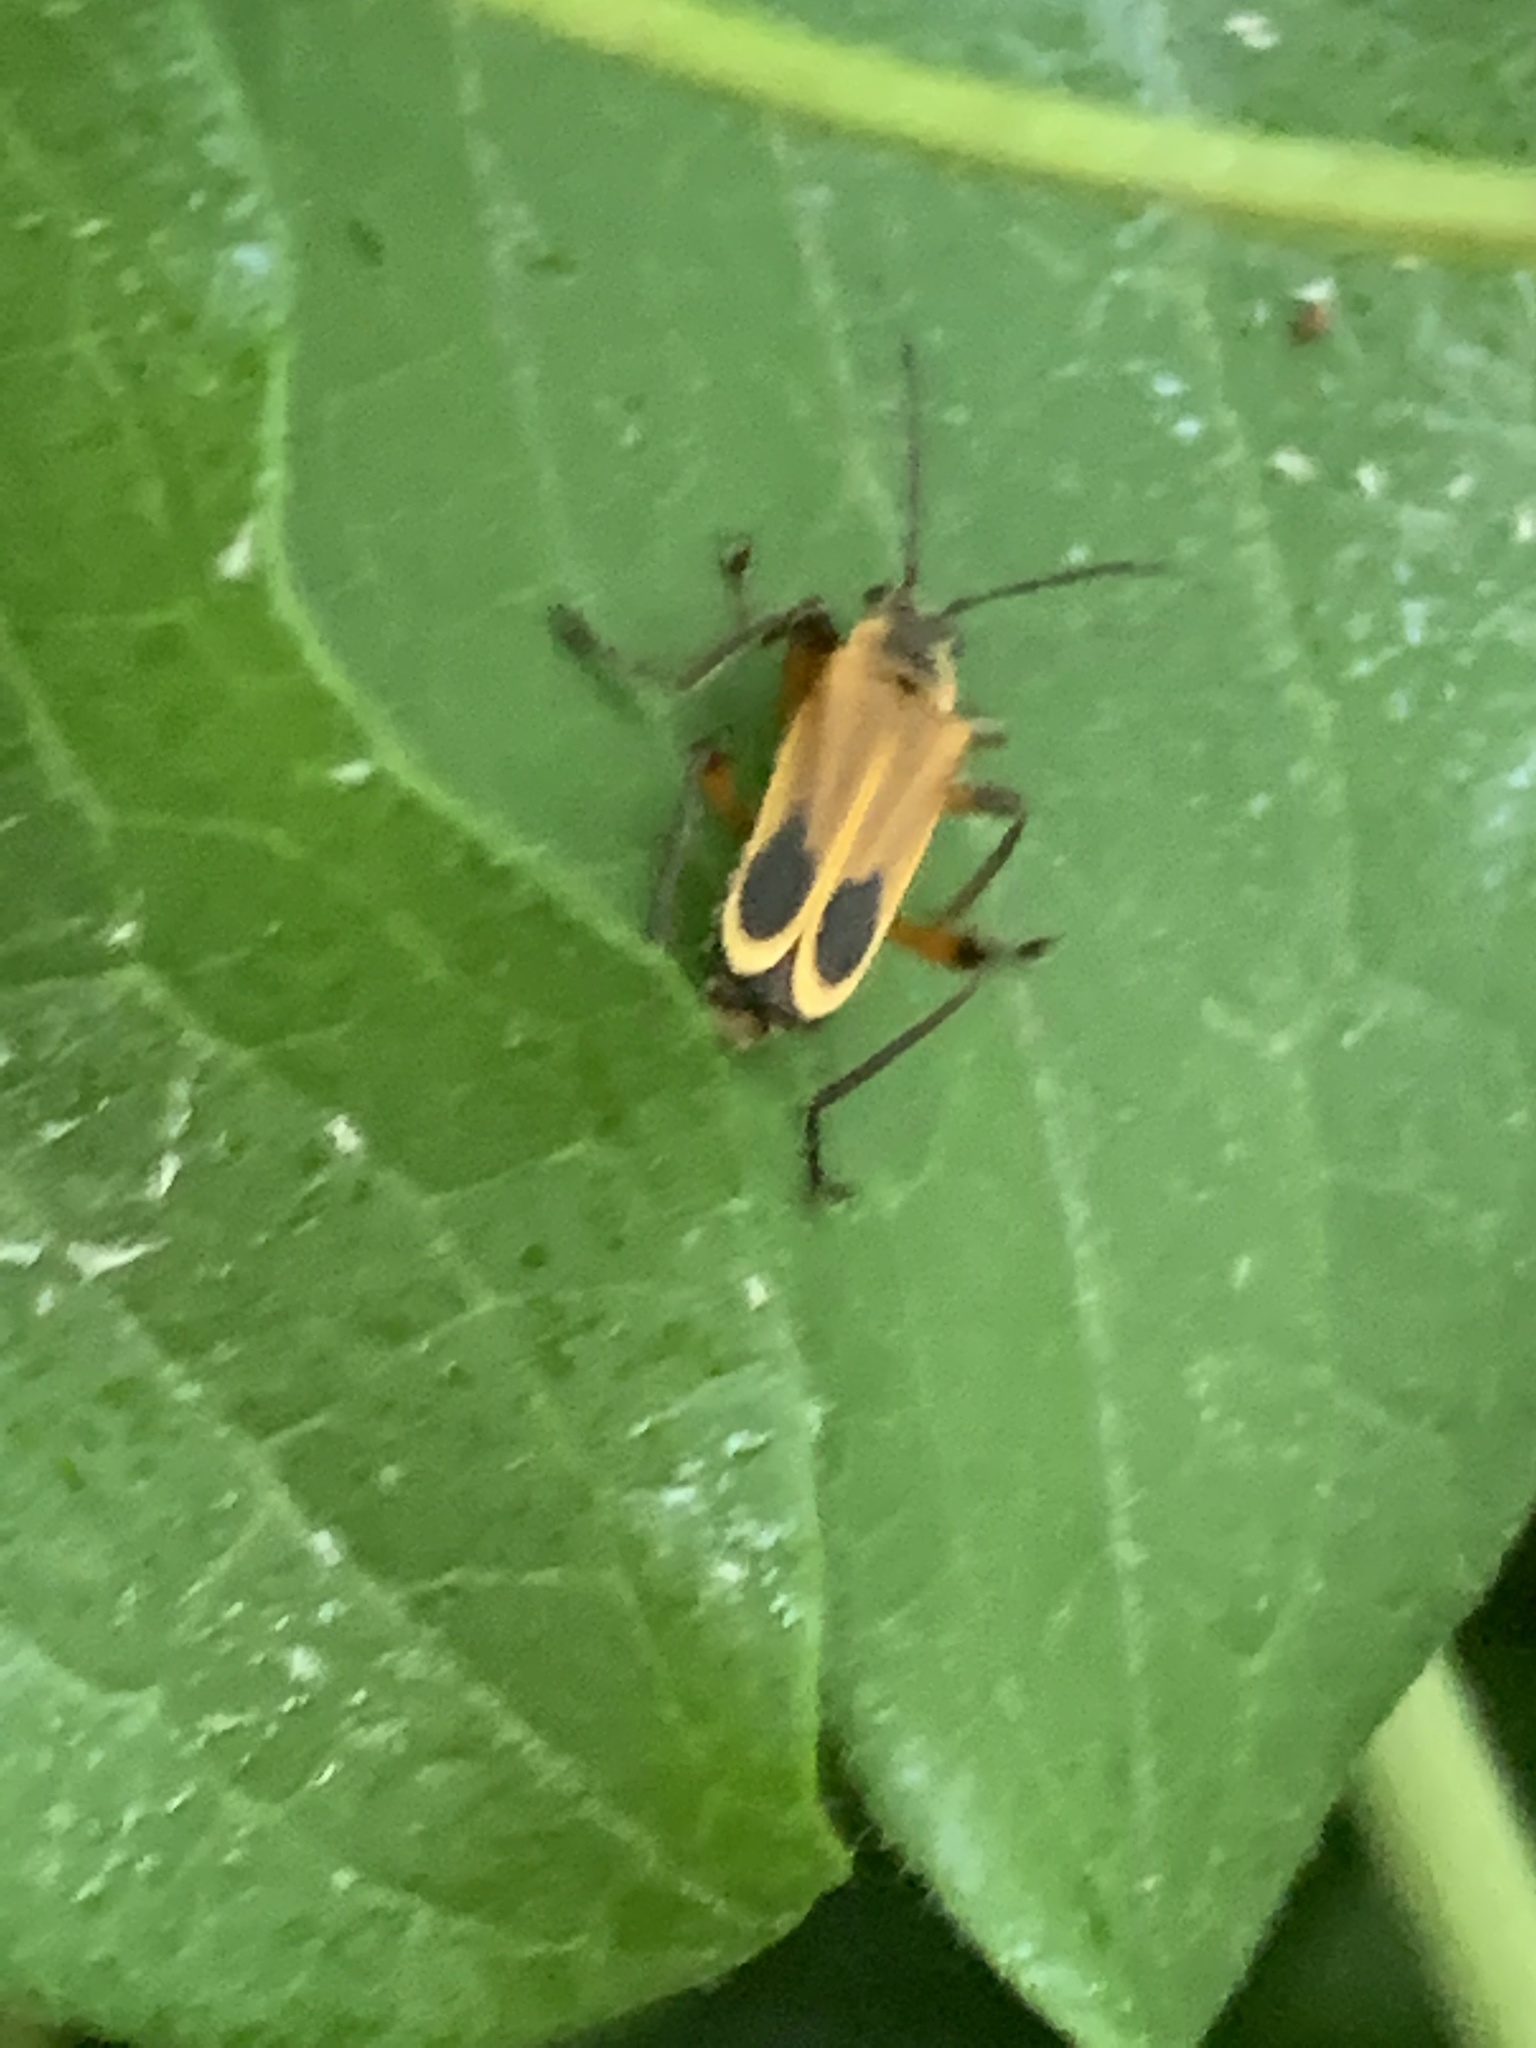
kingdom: Animalia
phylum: Arthropoda
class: Insecta
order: Coleoptera
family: Cantharidae
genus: Chauliognathus
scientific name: Chauliognathus marginatus
